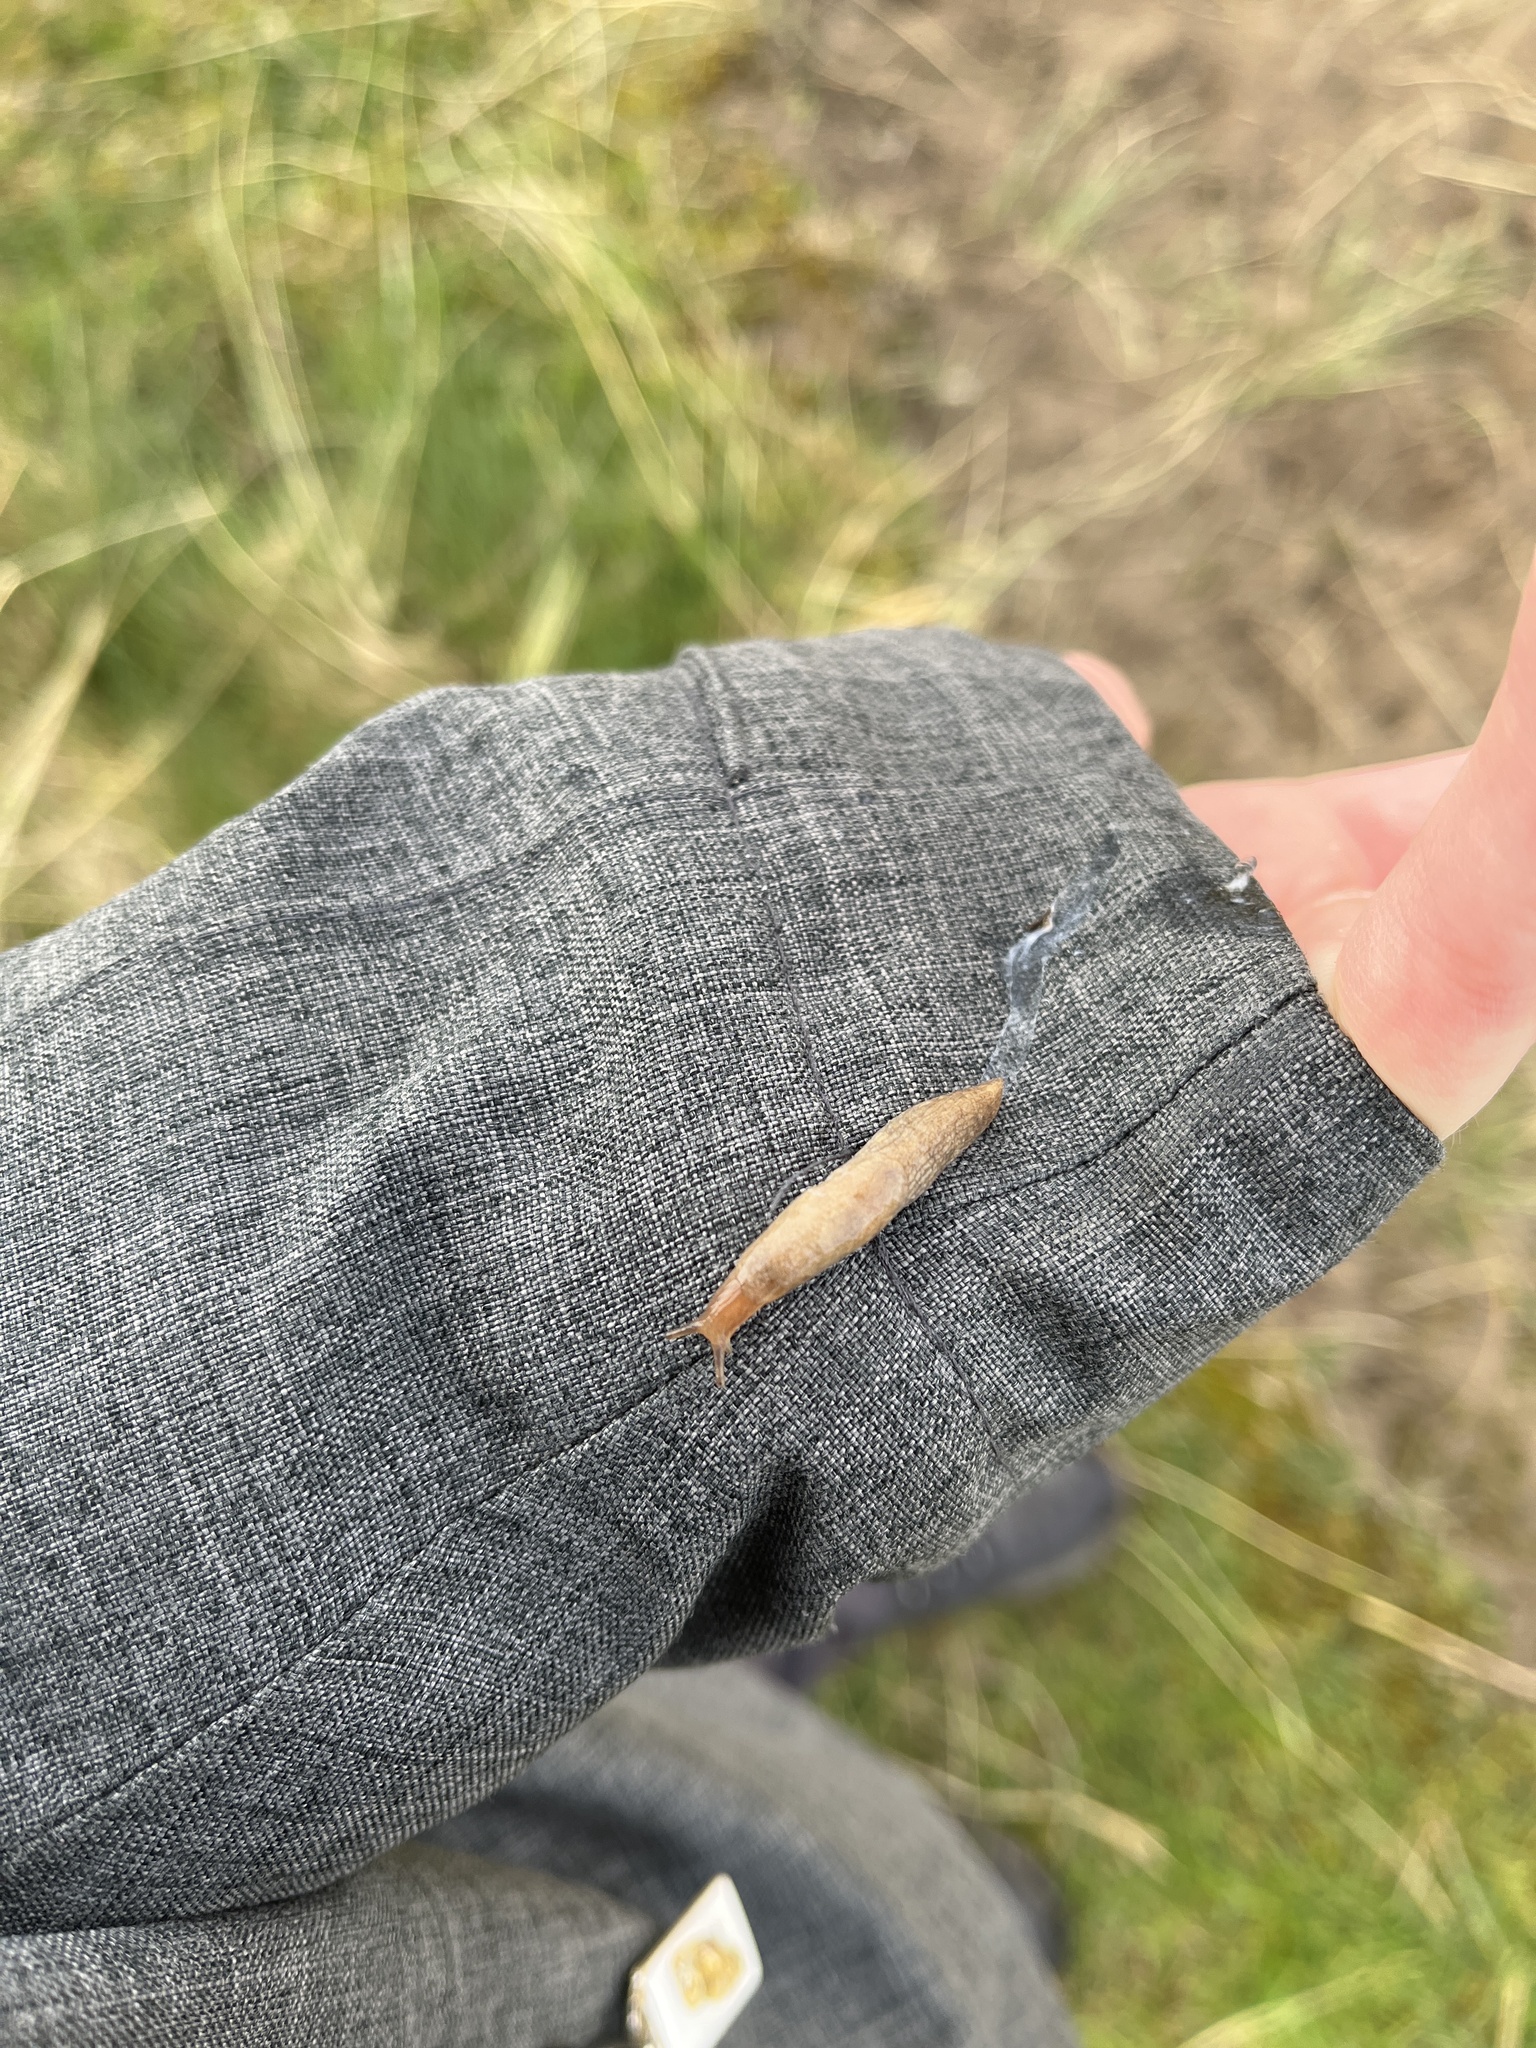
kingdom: Animalia
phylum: Mollusca
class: Gastropoda
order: Stylommatophora
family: Agriolimacidae
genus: Deroceras
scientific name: Deroceras reticulatum
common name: Gray field slug
